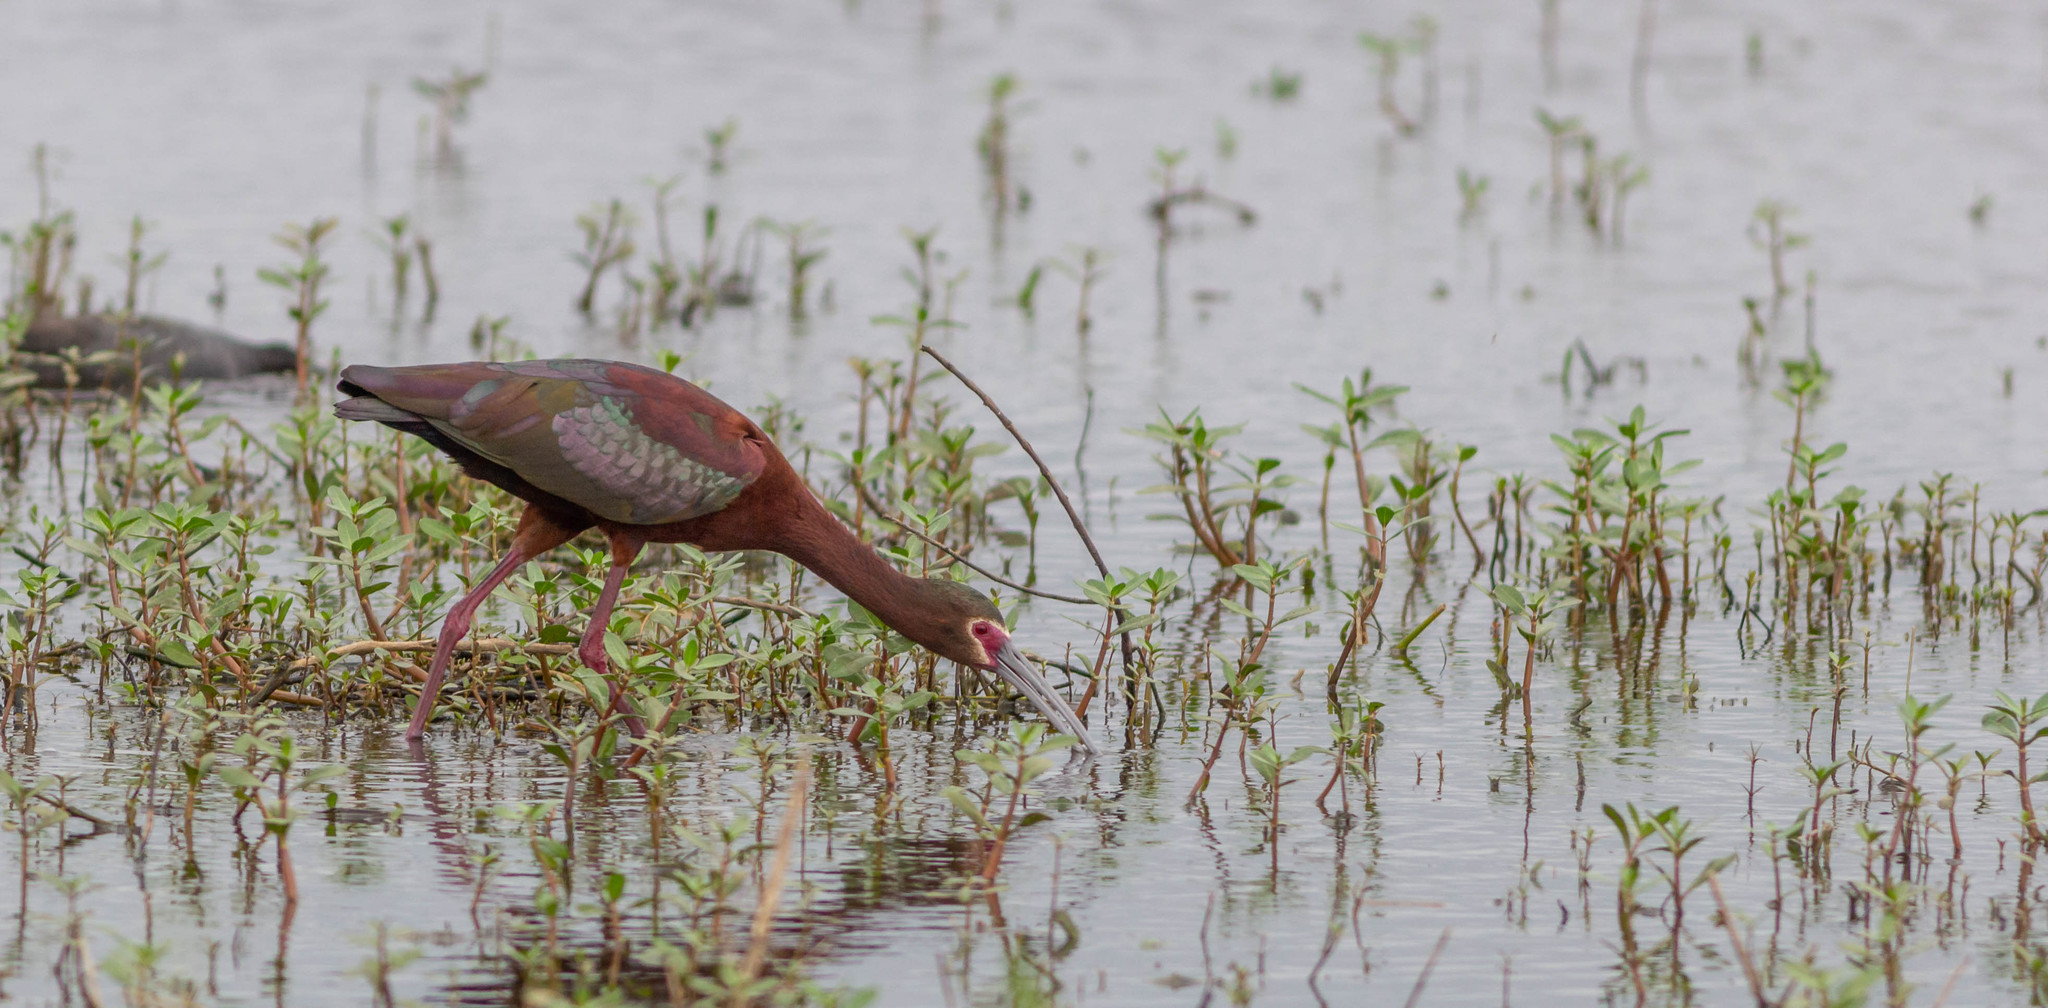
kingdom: Animalia
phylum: Chordata
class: Aves
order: Pelecaniformes
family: Threskiornithidae
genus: Plegadis
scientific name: Plegadis chihi
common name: White-faced ibis
